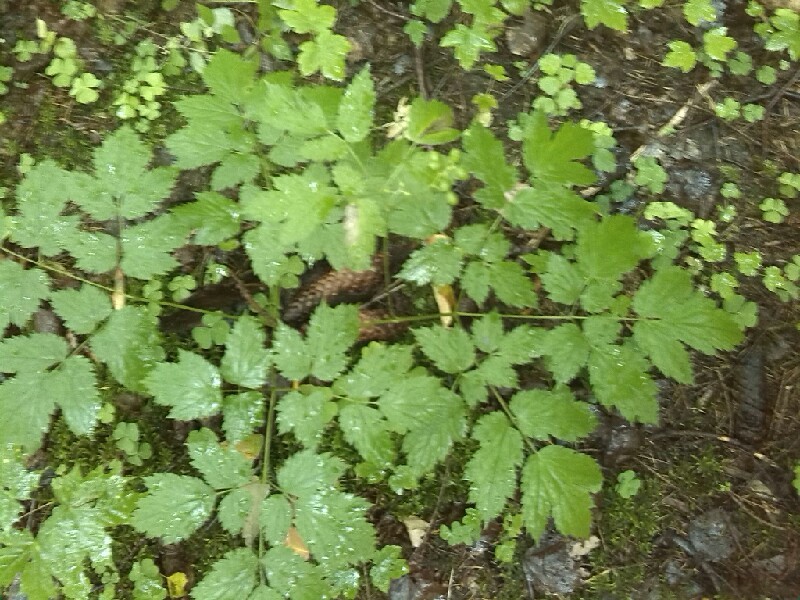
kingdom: Plantae
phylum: Tracheophyta
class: Magnoliopsida
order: Ranunculales
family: Ranunculaceae
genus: Actaea
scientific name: Actaea spicata
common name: Baneberry
